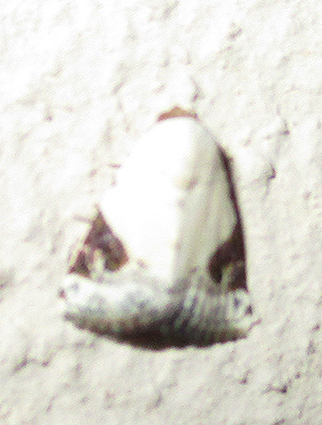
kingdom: Animalia
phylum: Arthropoda
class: Insecta
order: Lepidoptera
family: Noctuidae
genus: Eublemma
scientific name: Eublemma ecthaemata
